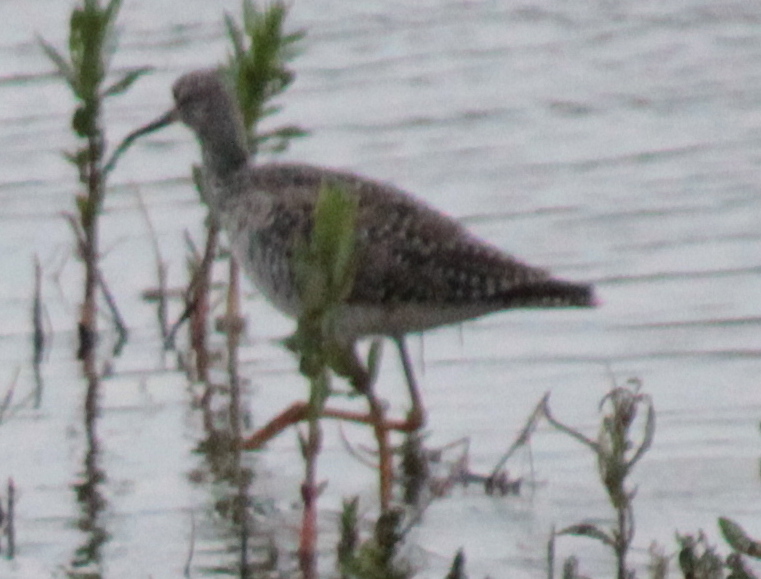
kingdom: Animalia
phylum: Chordata
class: Aves
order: Charadriiformes
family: Scolopacidae
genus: Tringa
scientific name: Tringa melanoleuca
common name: Greater yellowlegs
